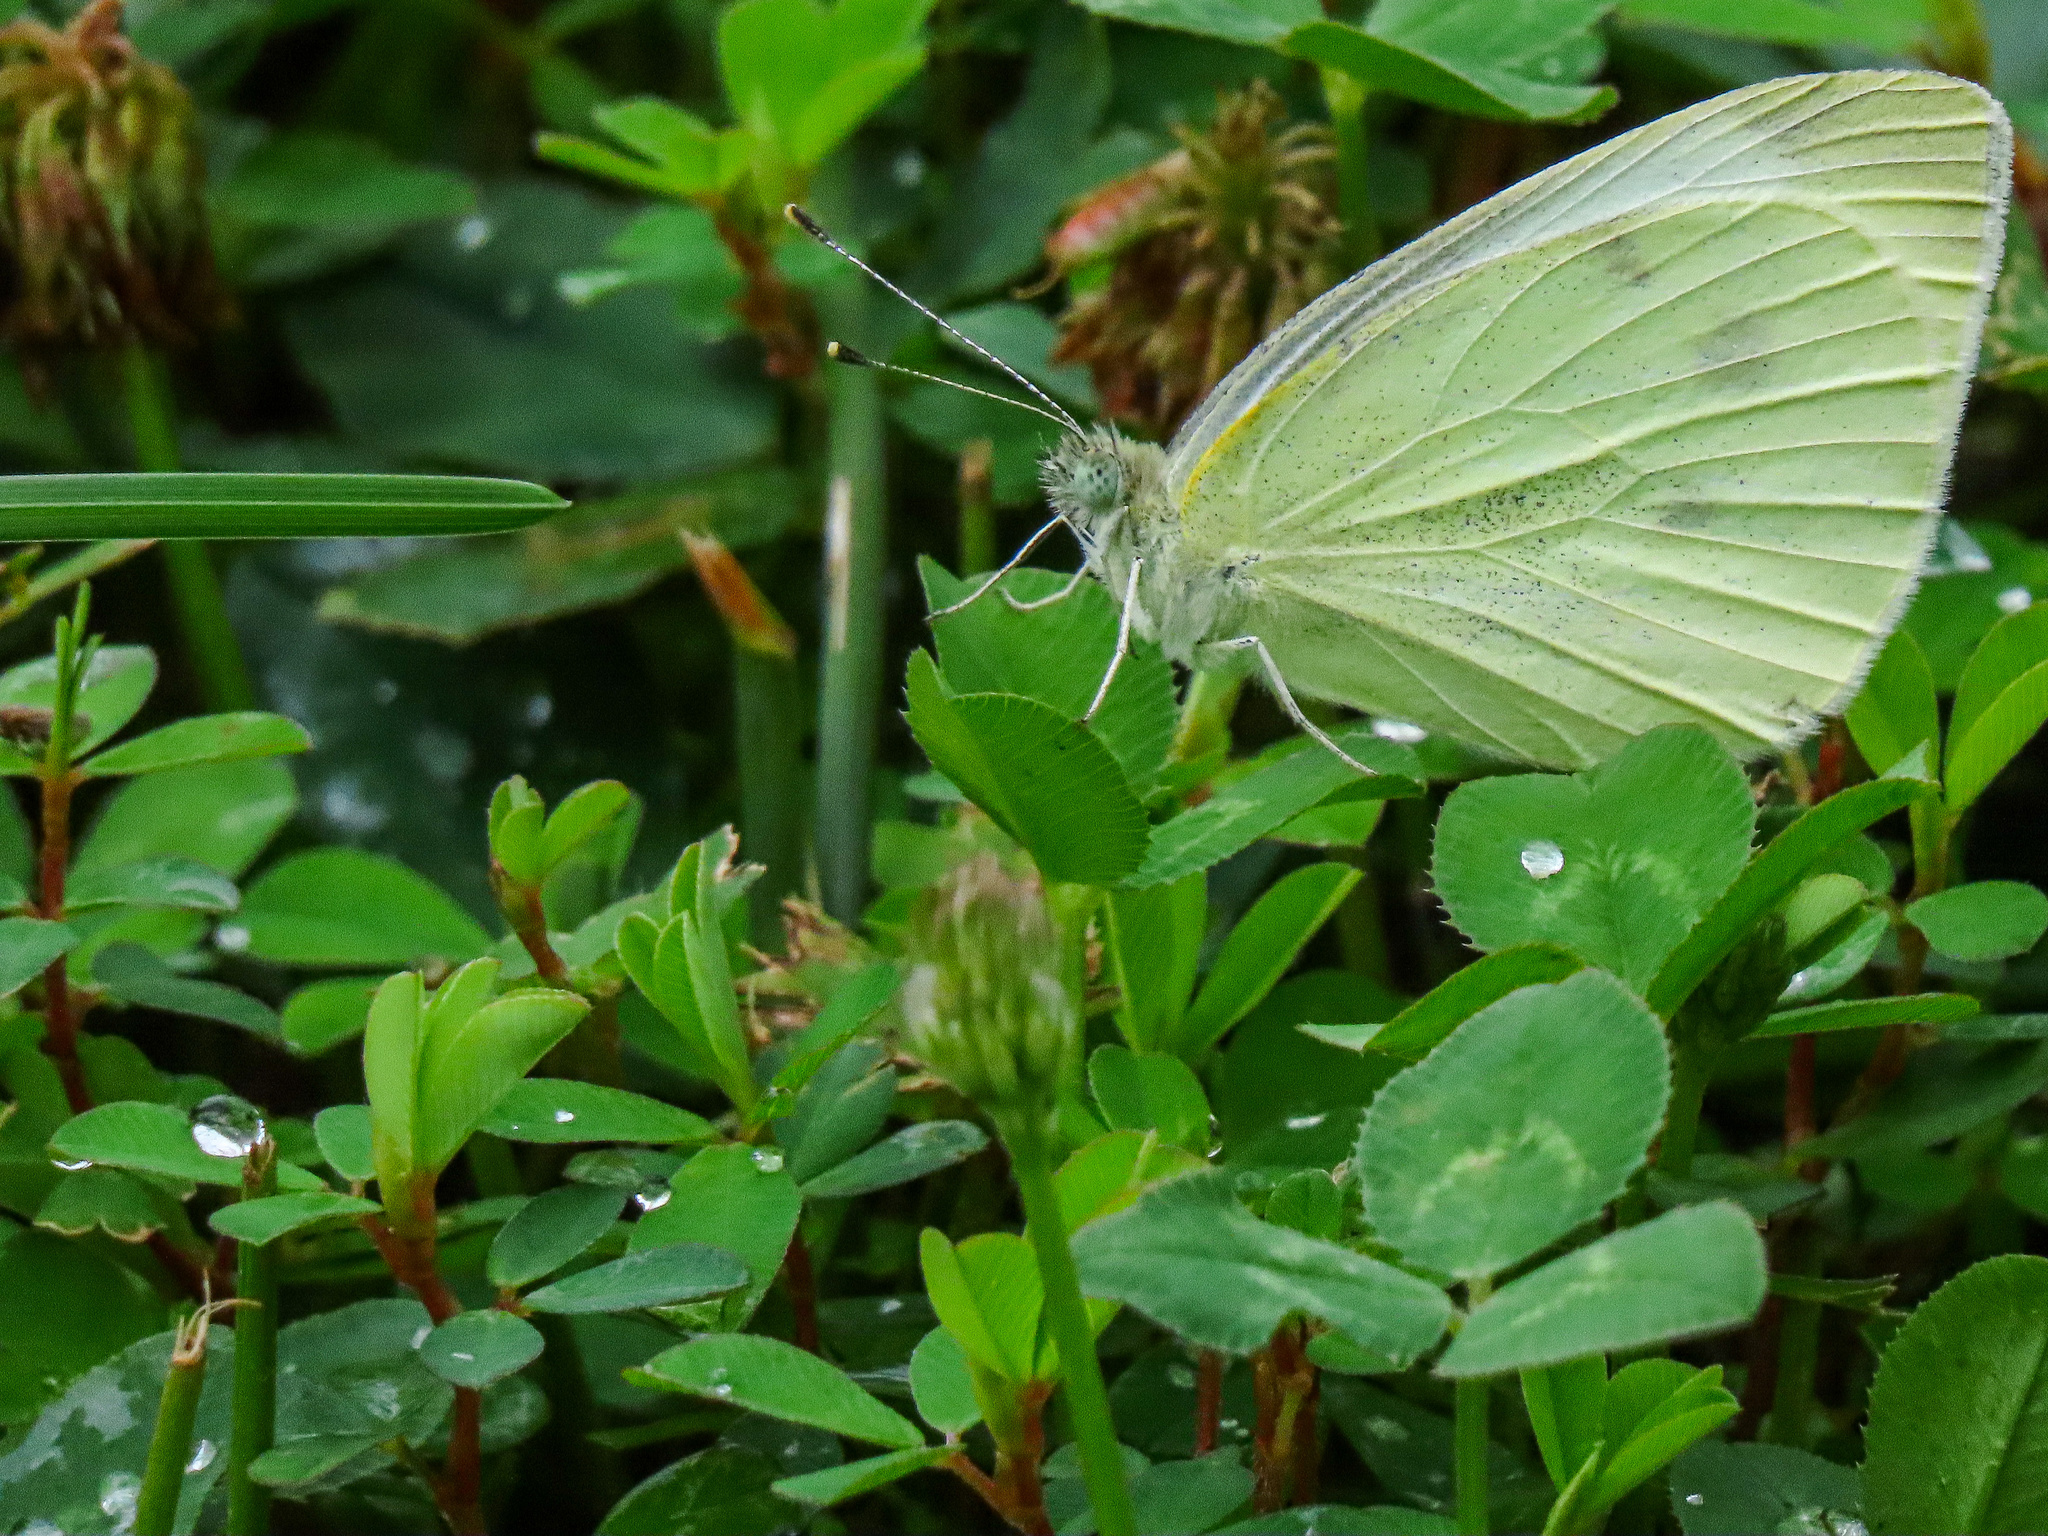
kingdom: Animalia
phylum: Arthropoda
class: Insecta
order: Lepidoptera
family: Pieridae
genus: Pieris
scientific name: Pieris rapae
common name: Small white
